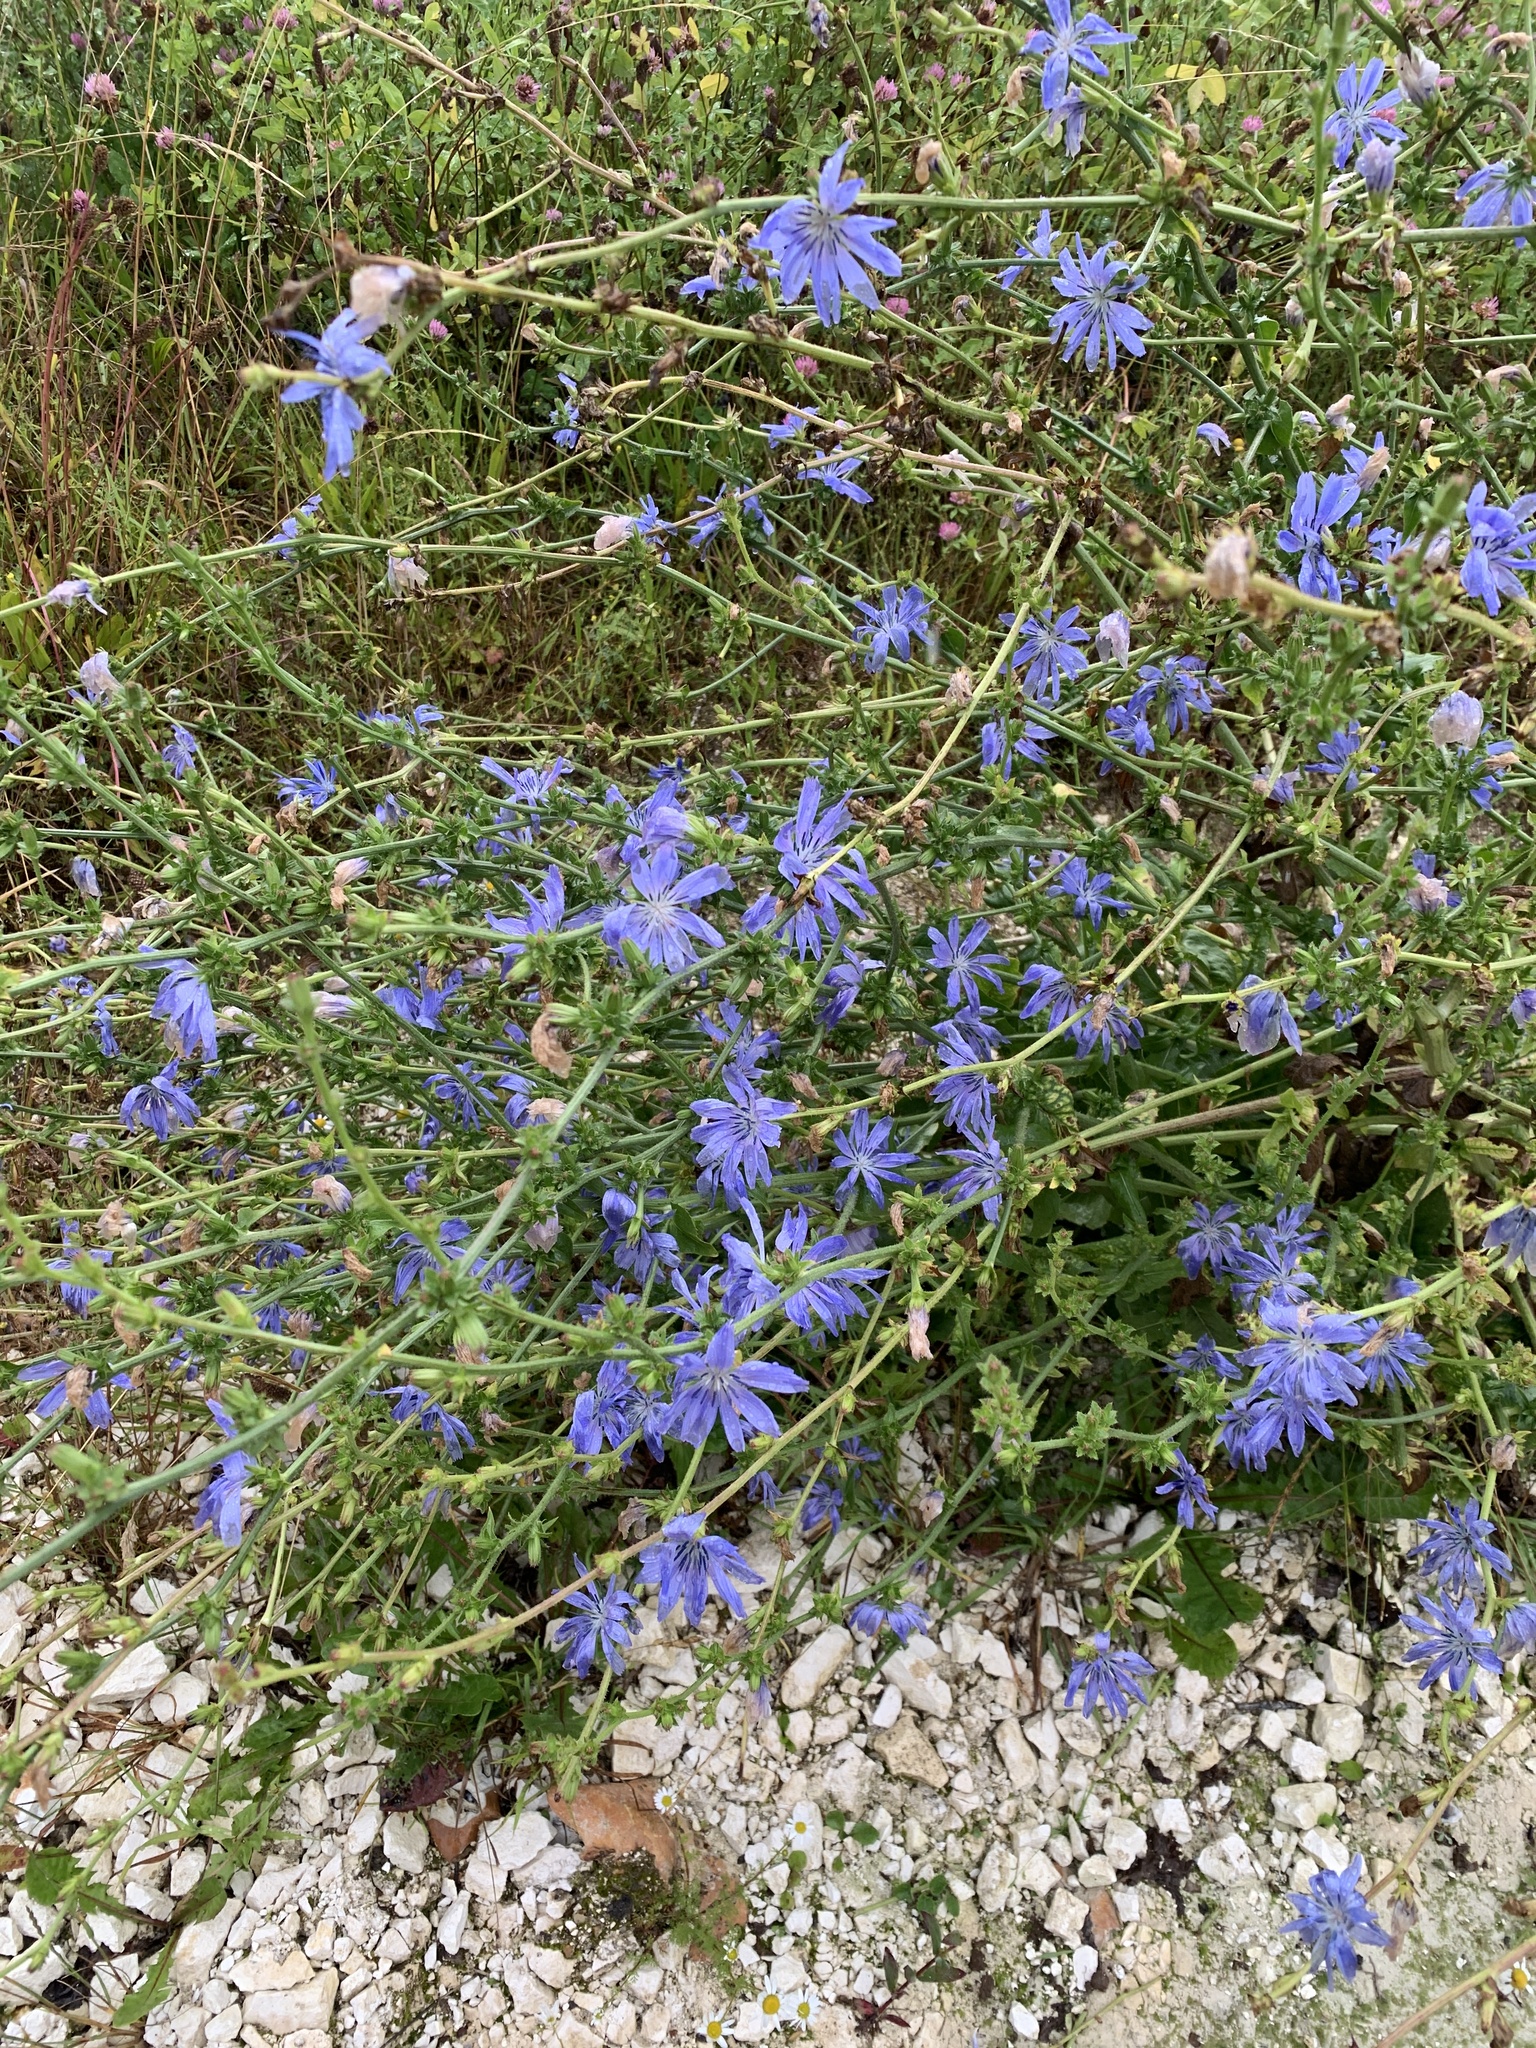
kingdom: Plantae
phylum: Tracheophyta
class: Magnoliopsida
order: Asterales
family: Asteraceae
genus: Cichorium
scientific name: Cichorium intybus
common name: Chicory
